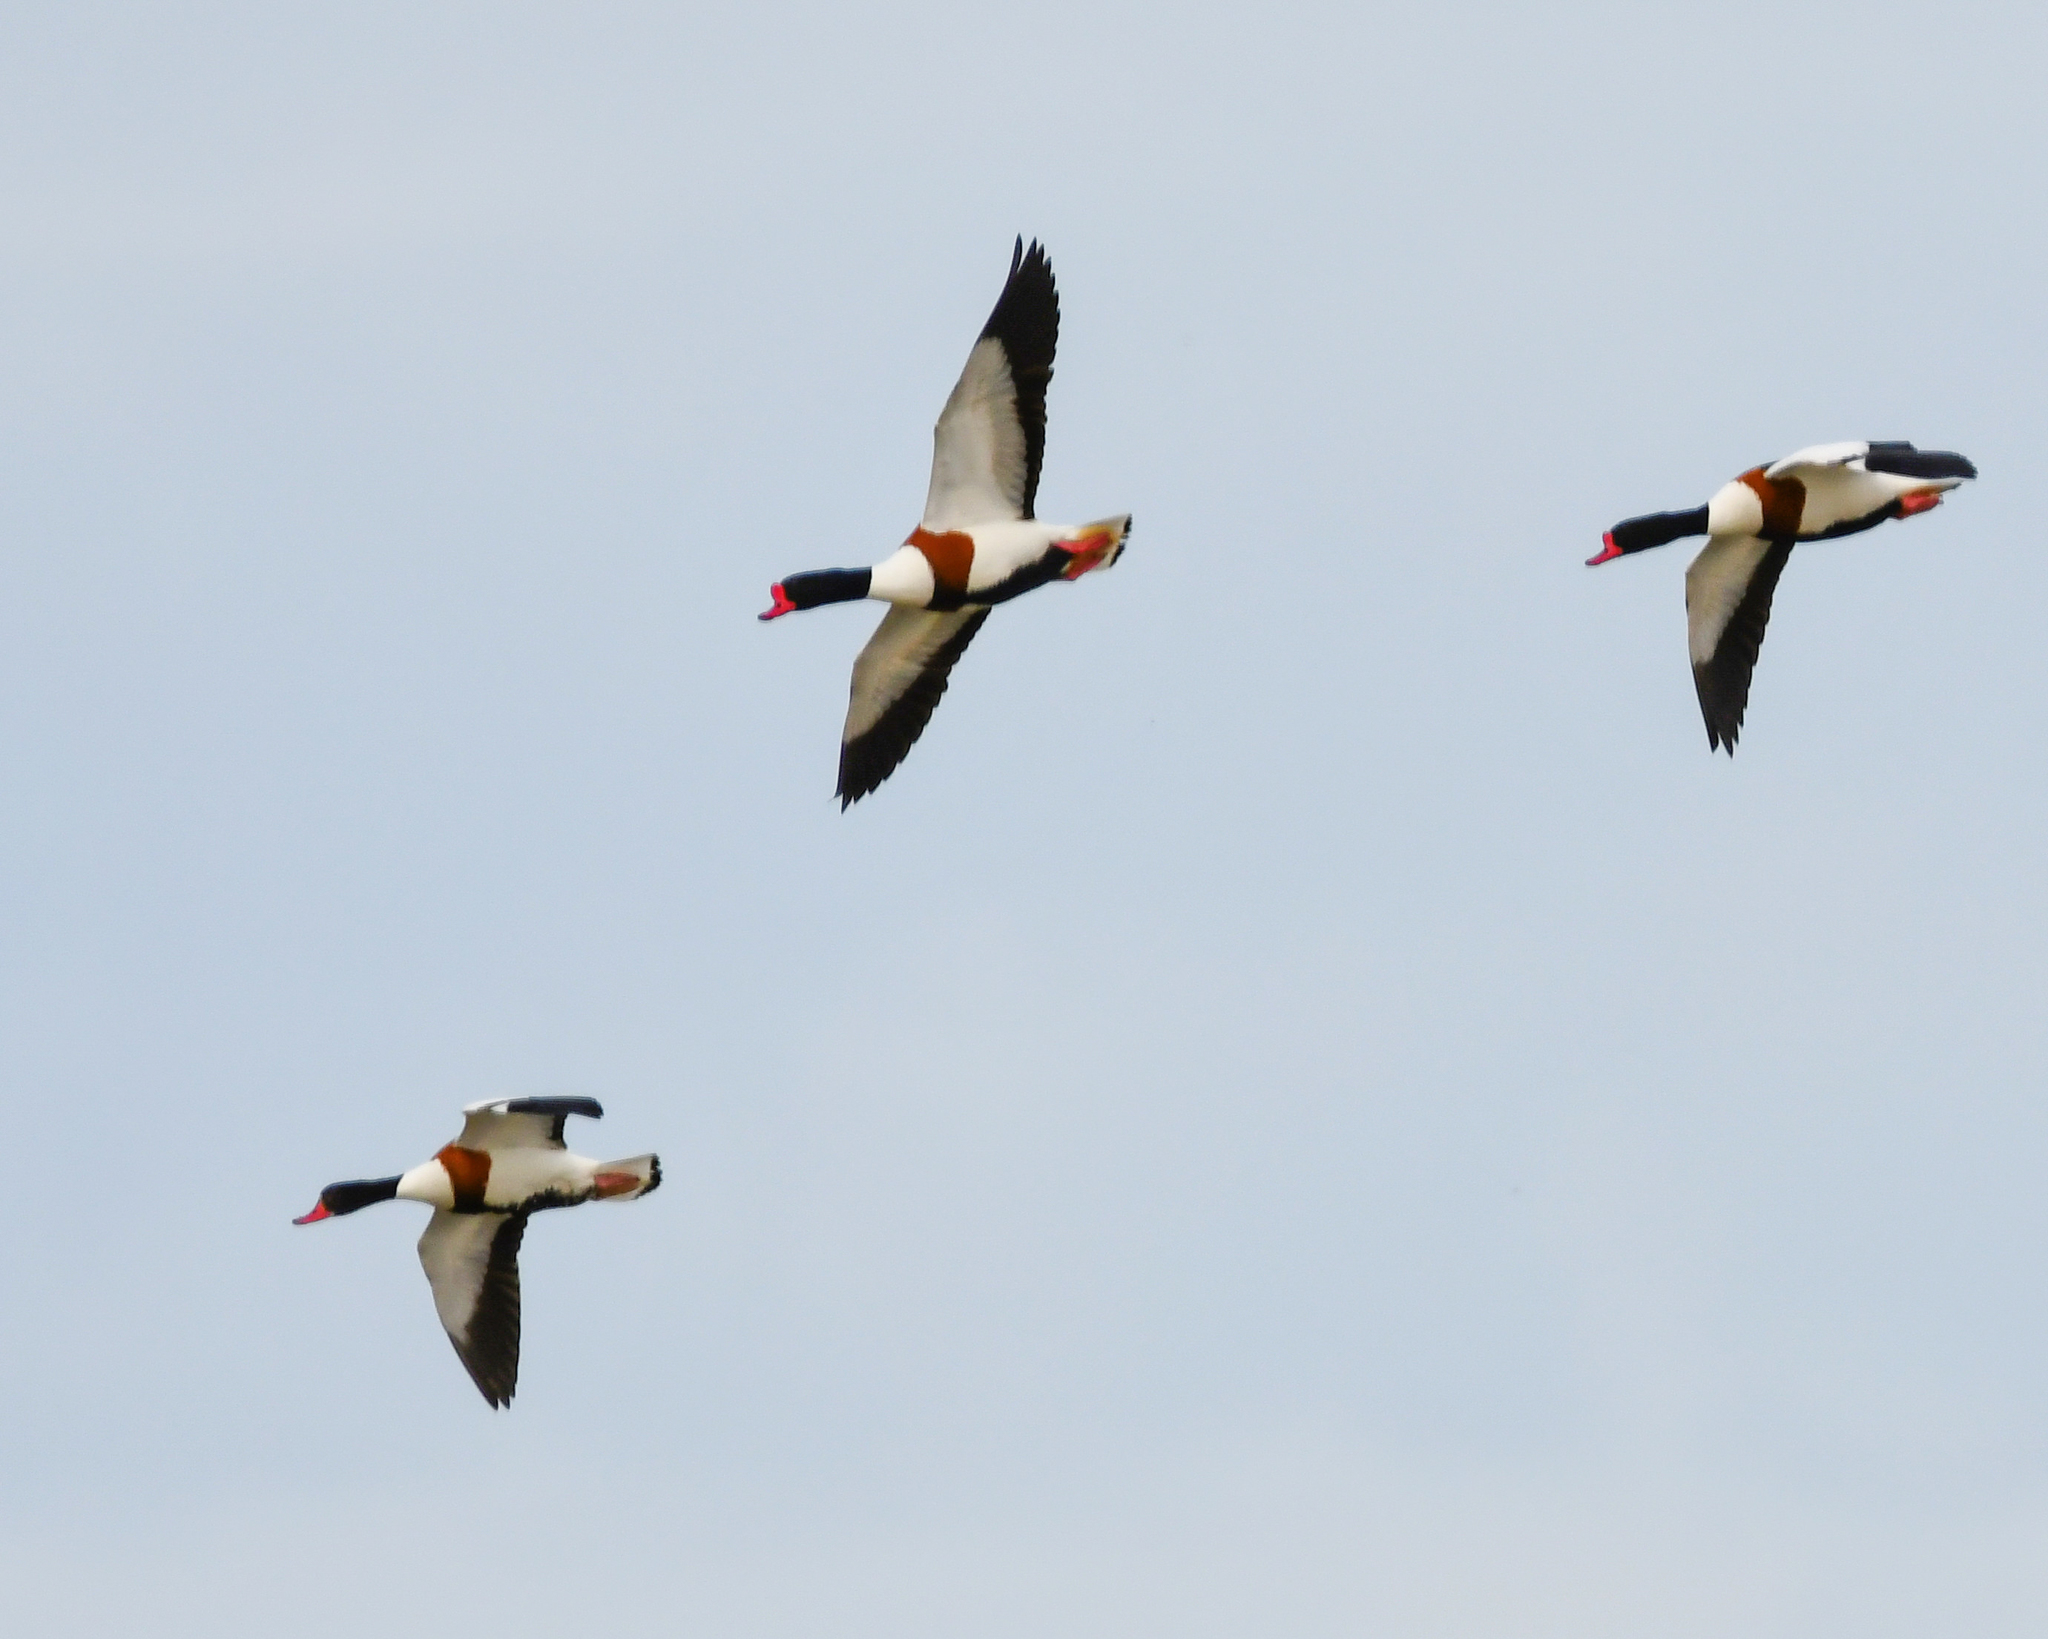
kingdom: Animalia
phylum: Chordata
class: Aves
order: Anseriformes
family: Anatidae
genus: Tadorna
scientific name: Tadorna tadorna
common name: Common shelduck
